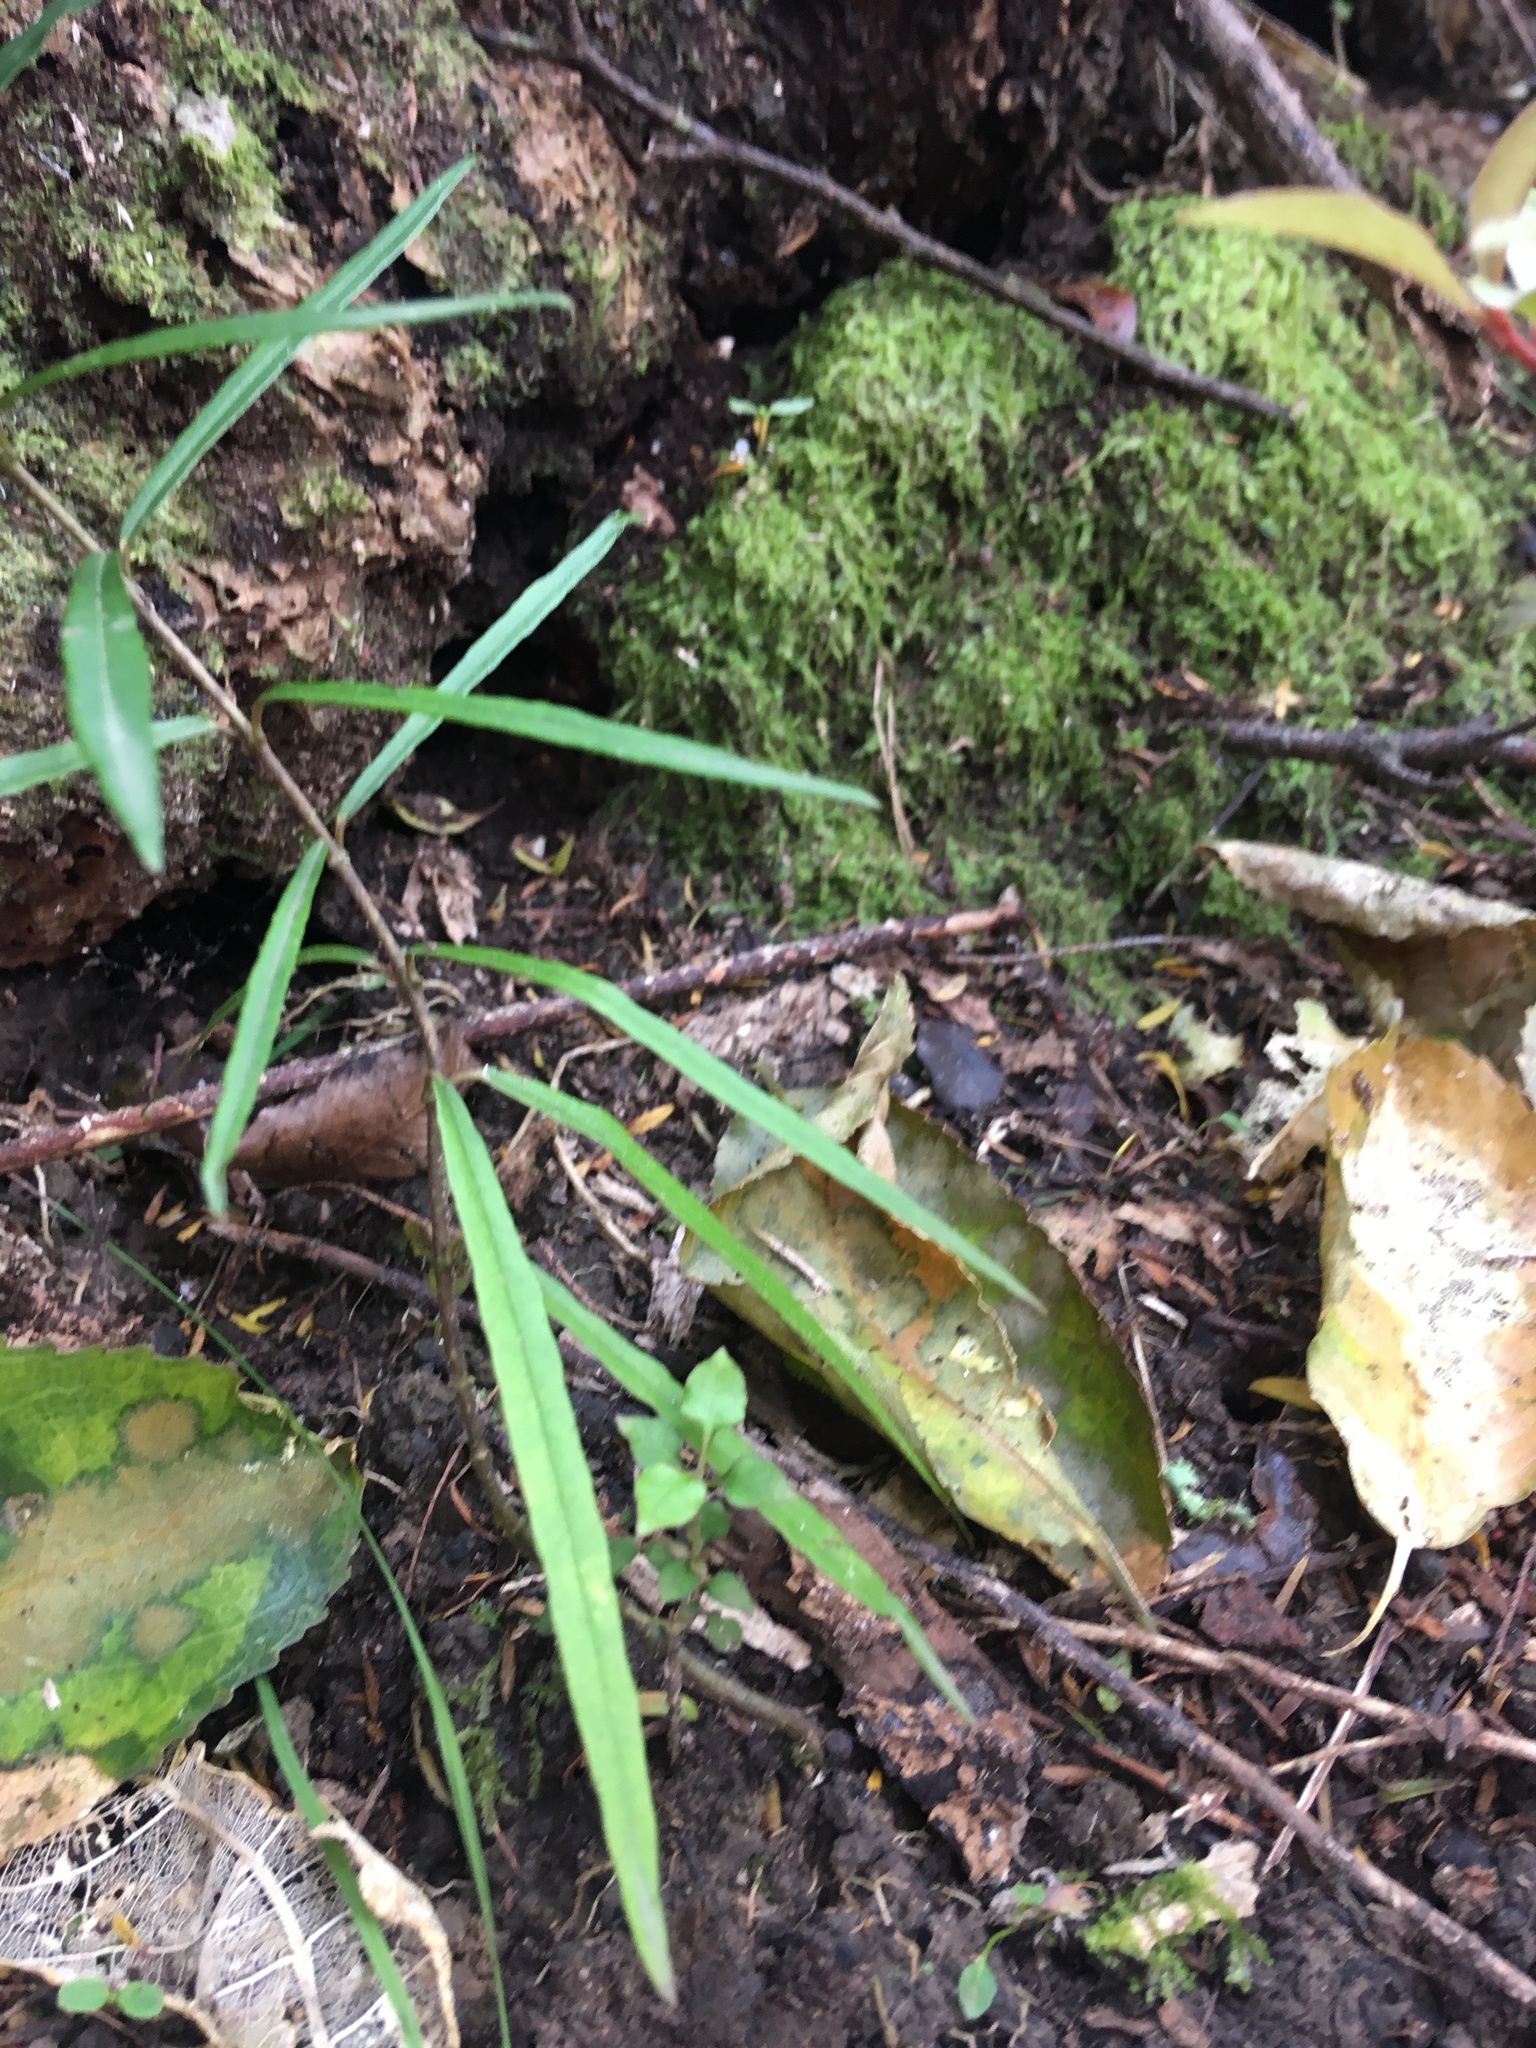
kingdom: Plantae
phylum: Tracheophyta
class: Magnoliopsida
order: Gentianales
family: Rubiaceae
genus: Coprosma
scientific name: Coprosma areolata
